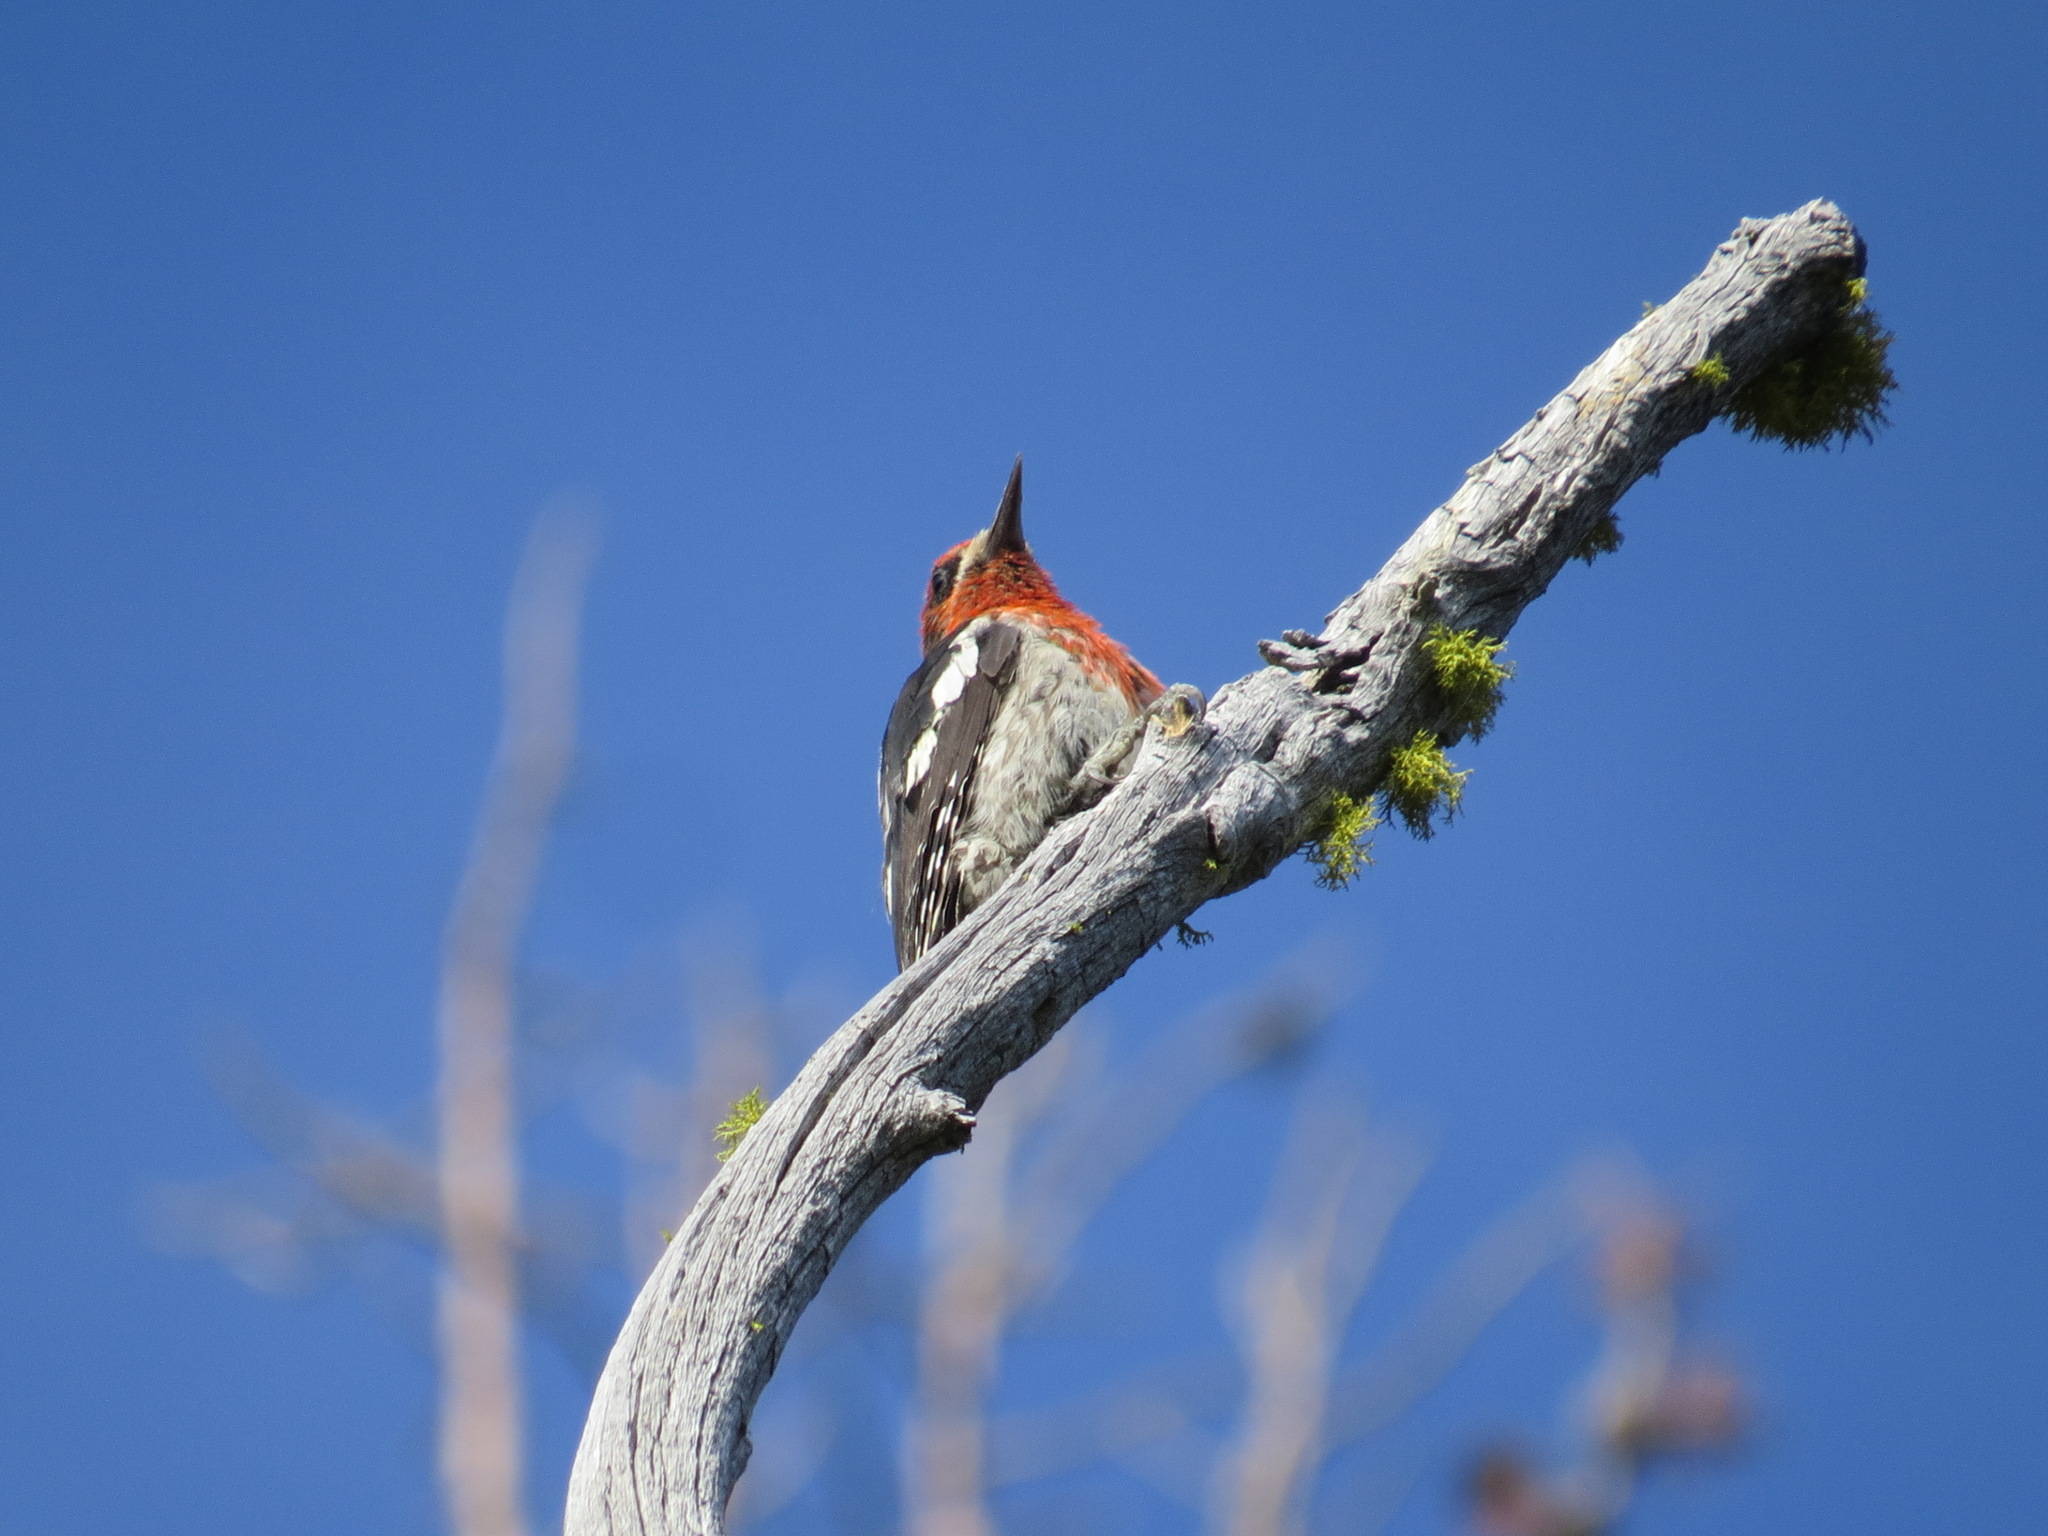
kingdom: Animalia
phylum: Chordata
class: Aves
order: Piciformes
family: Picidae
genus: Sphyrapicus
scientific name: Sphyrapicus ruber
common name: Red-breasted sapsucker
